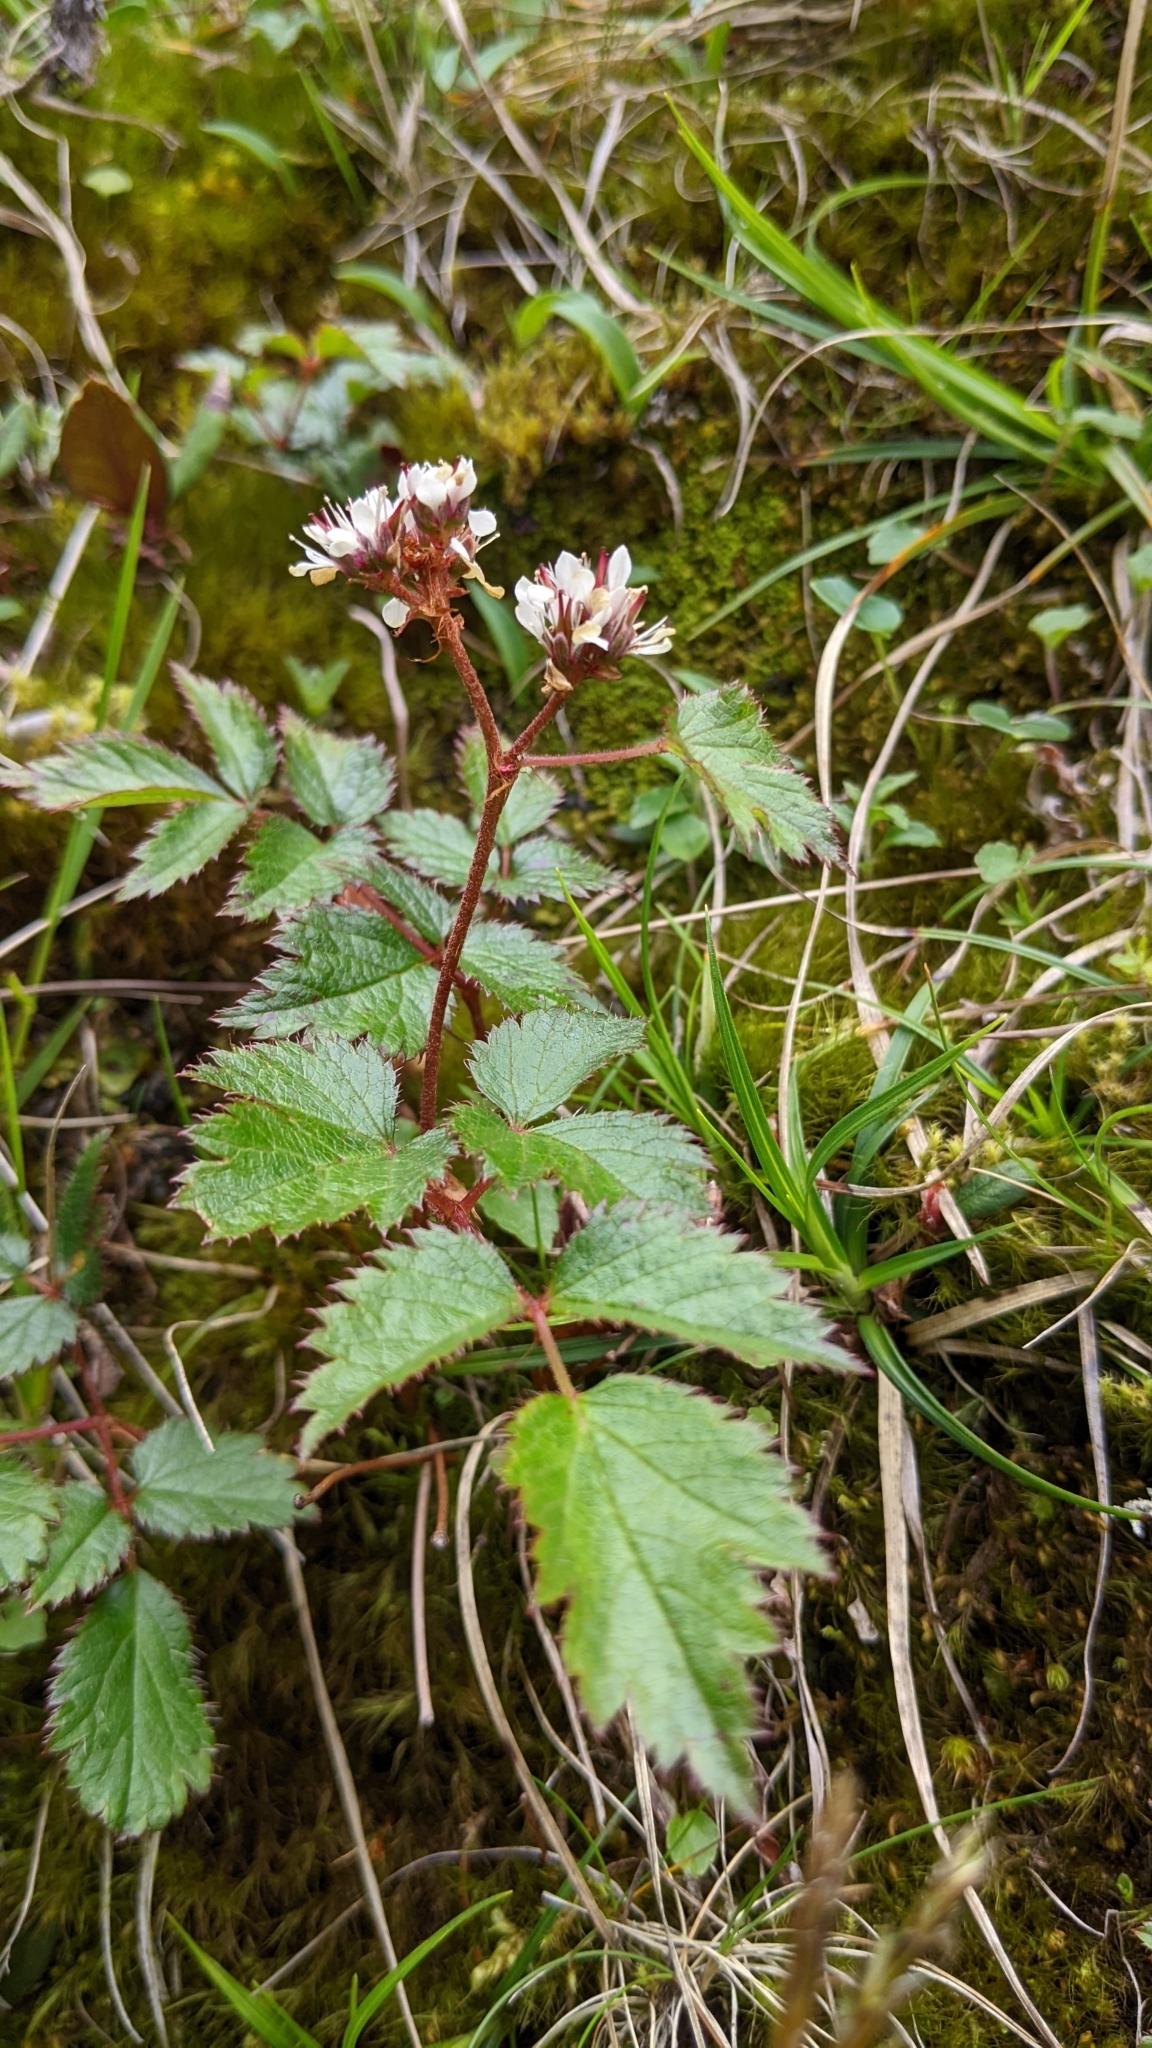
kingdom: Plantae
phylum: Tracheophyta
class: Magnoliopsida
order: Saxifragales
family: Saxifragaceae
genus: Astilbe
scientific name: Astilbe macroflora
